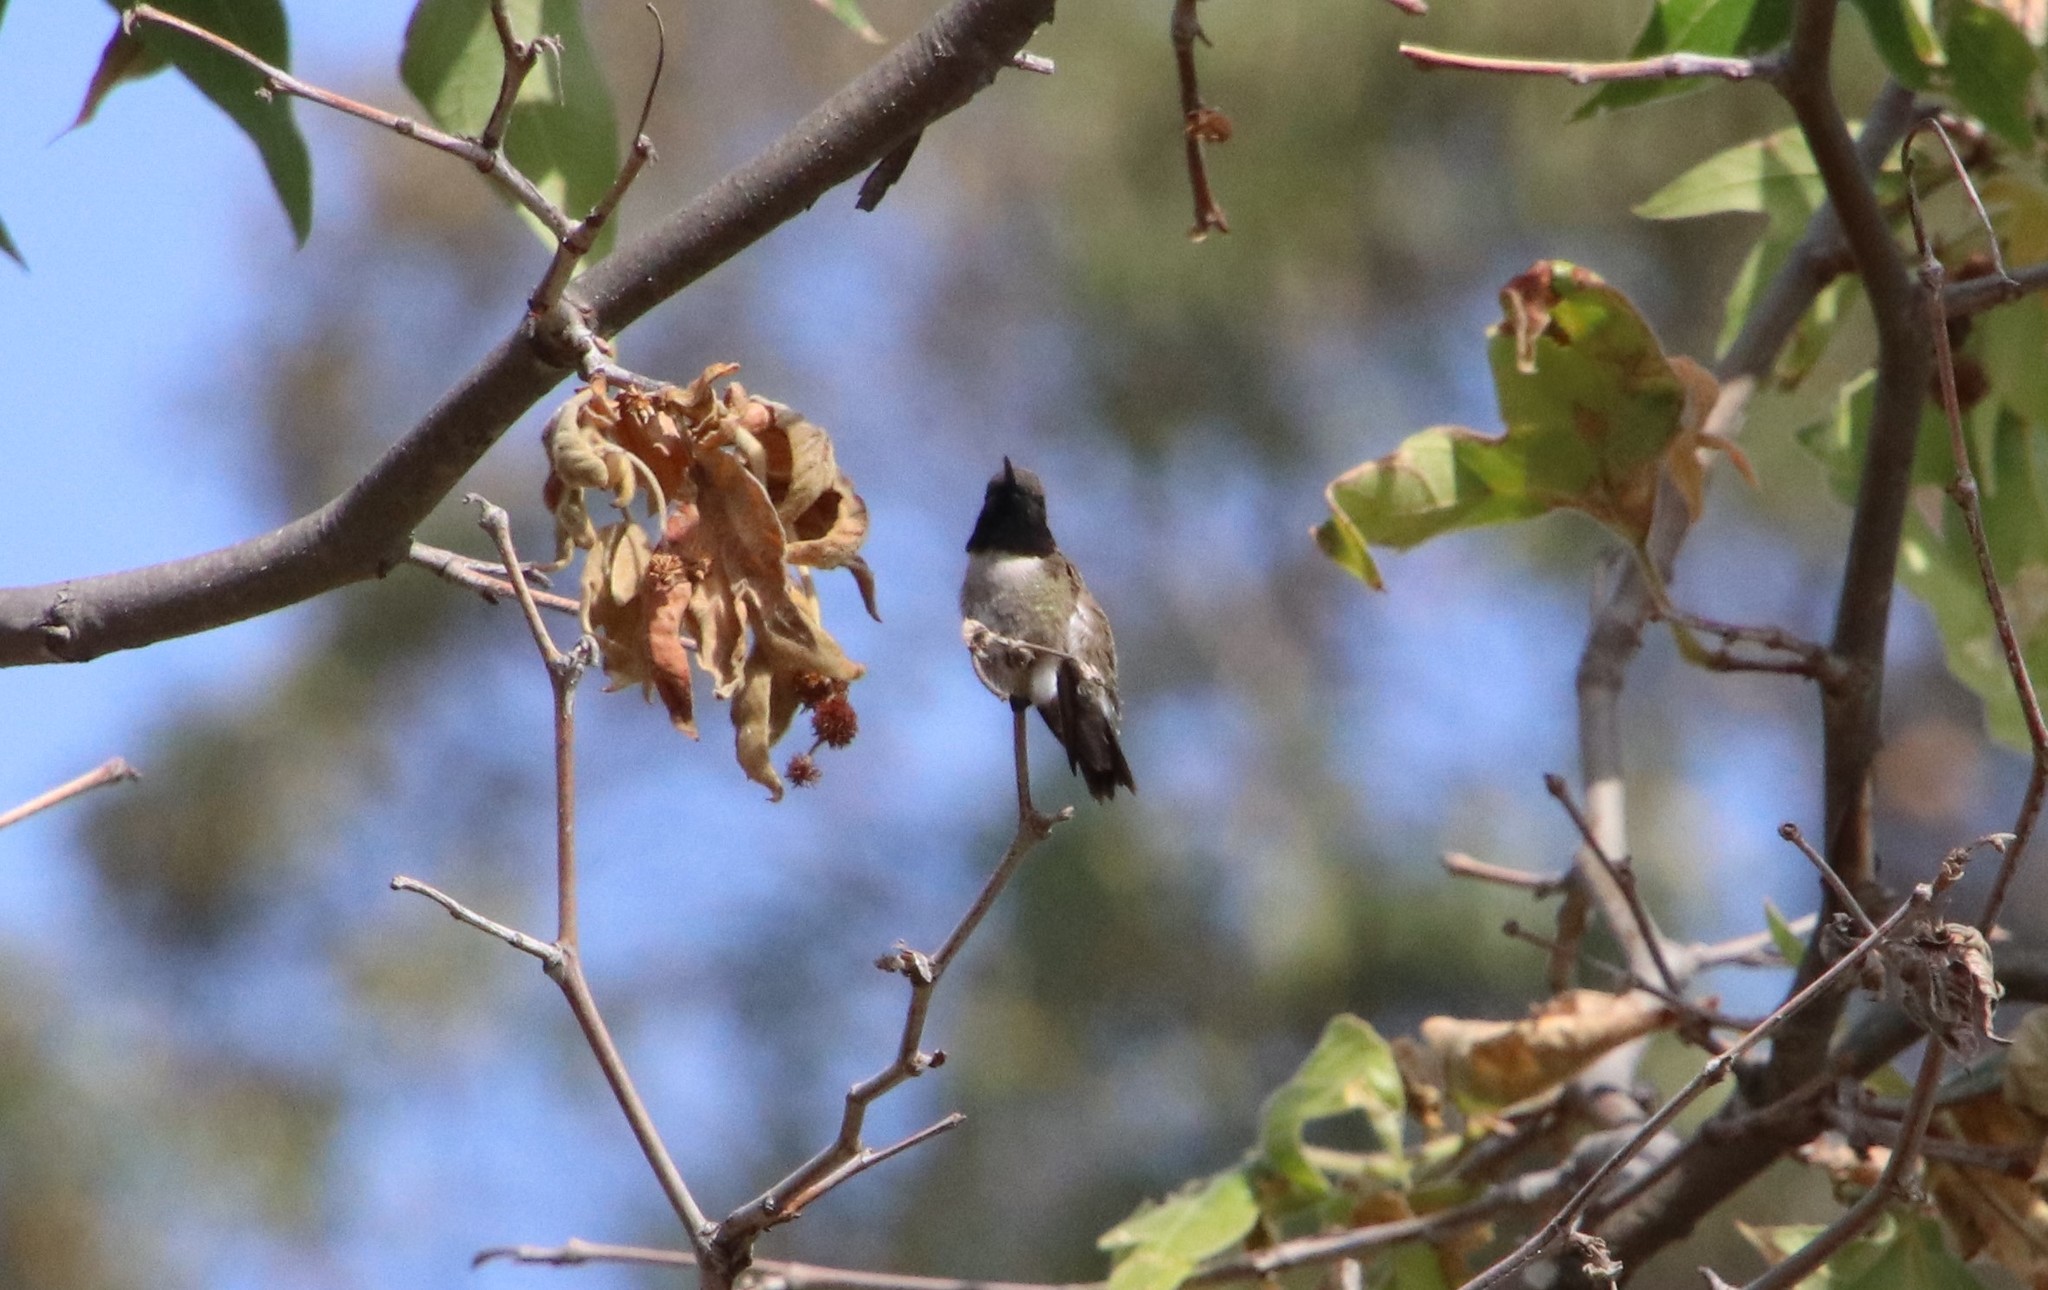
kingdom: Animalia
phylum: Chordata
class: Aves
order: Apodiformes
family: Trochilidae
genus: Archilochus
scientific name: Archilochus alexandri
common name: Black-chinned hummingbird
